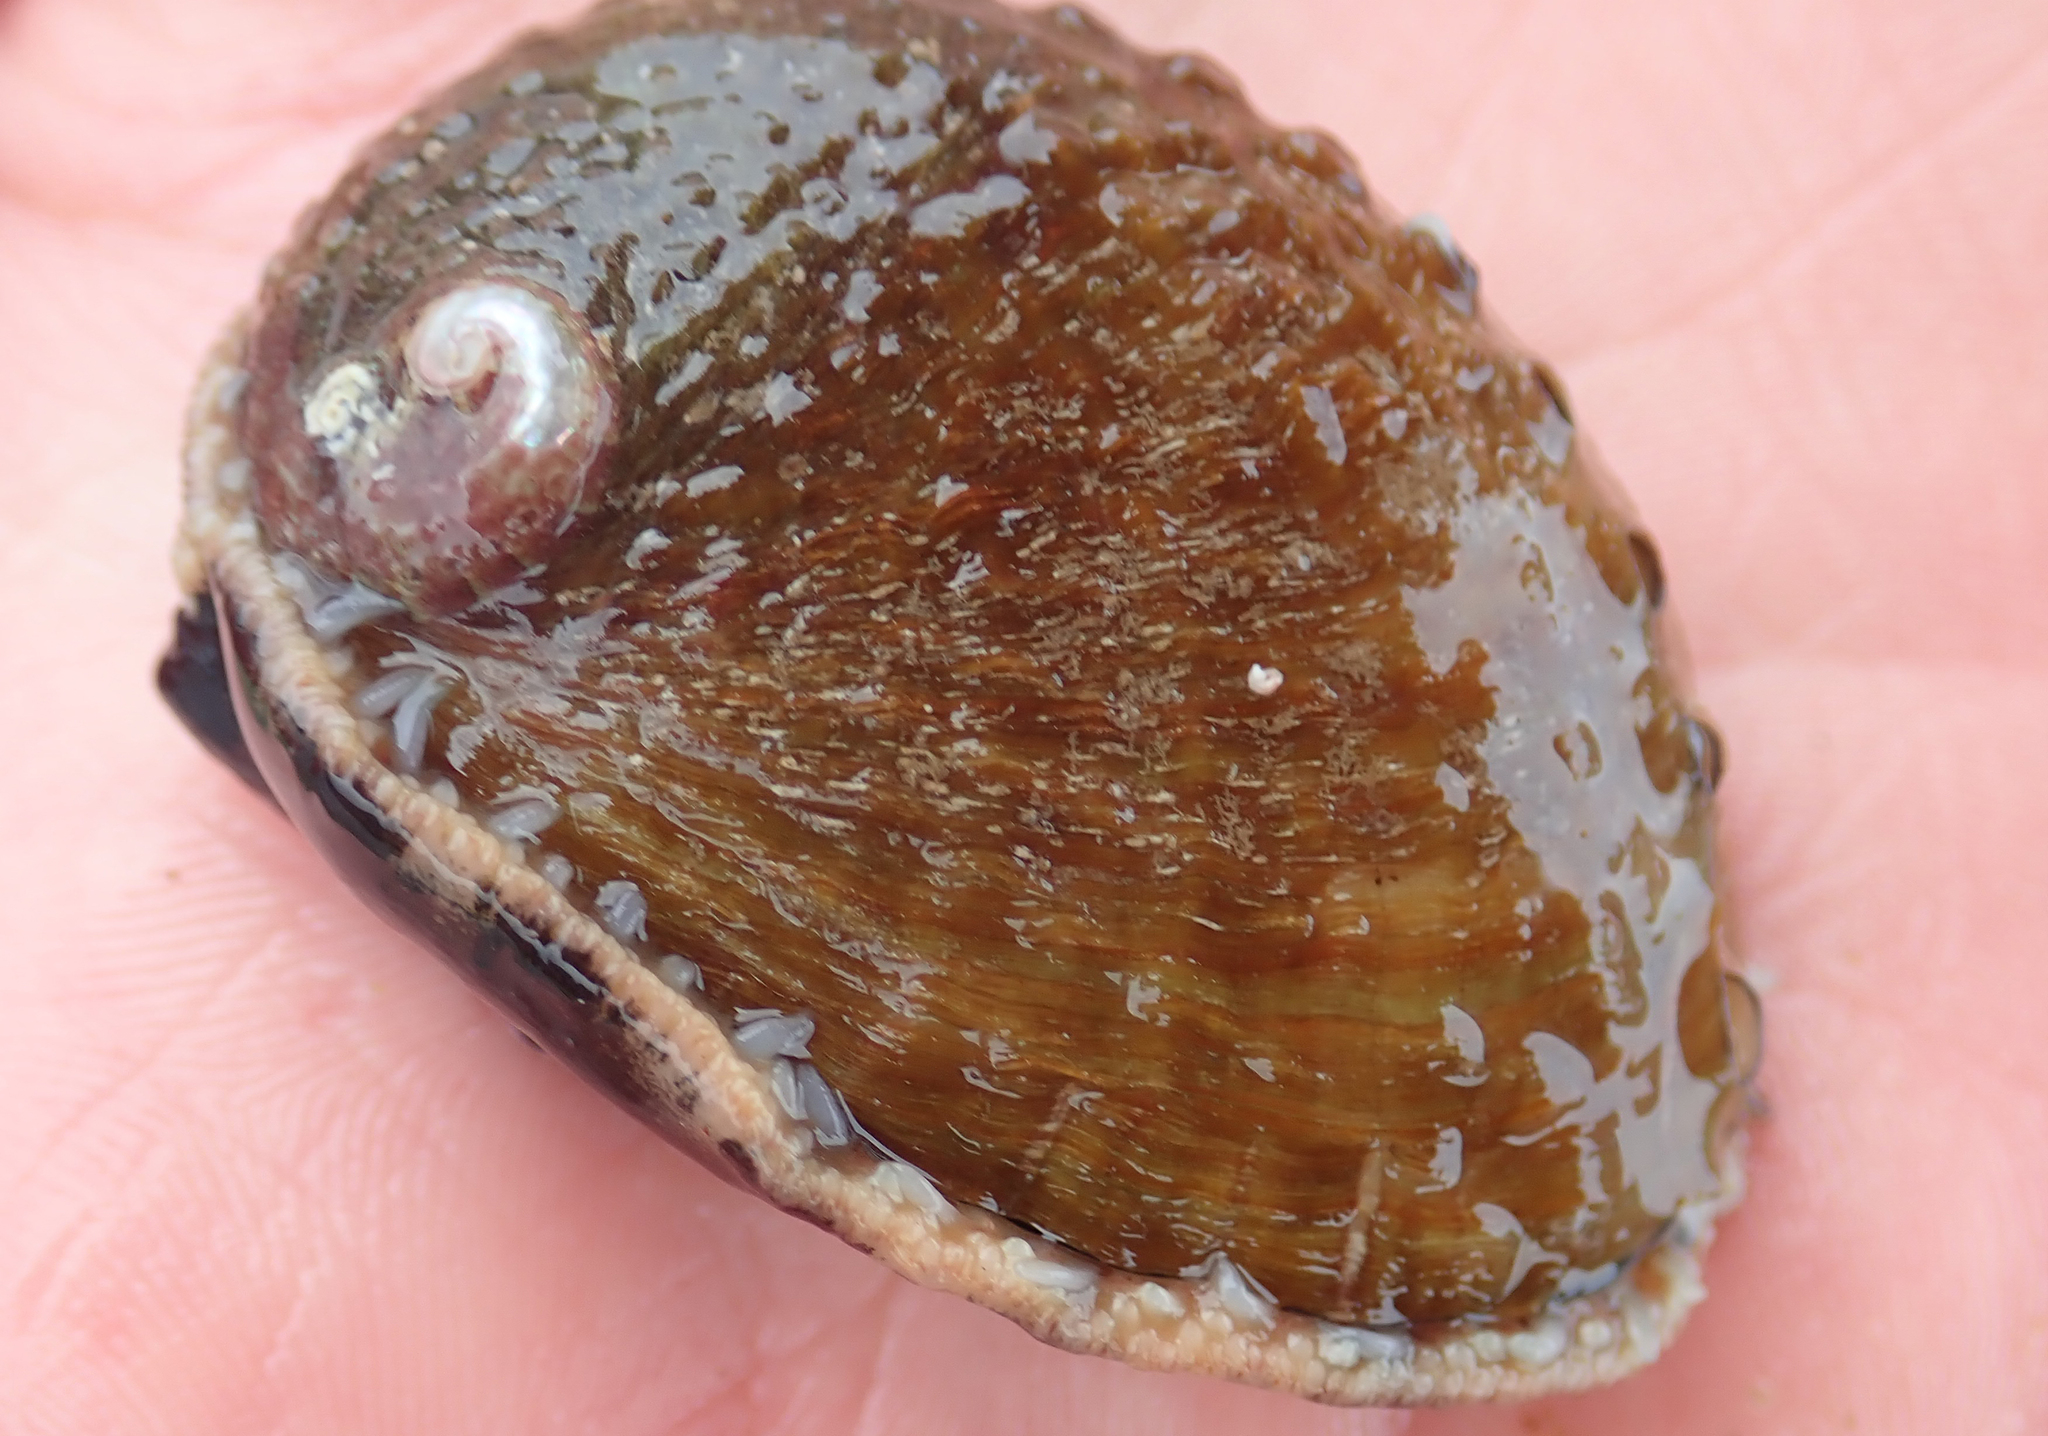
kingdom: Animalia
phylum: Mollusca
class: Gastropoda
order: Lepetellida
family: Haliotidae
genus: Haliotis
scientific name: Haliotis australis
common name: Silver abalone
